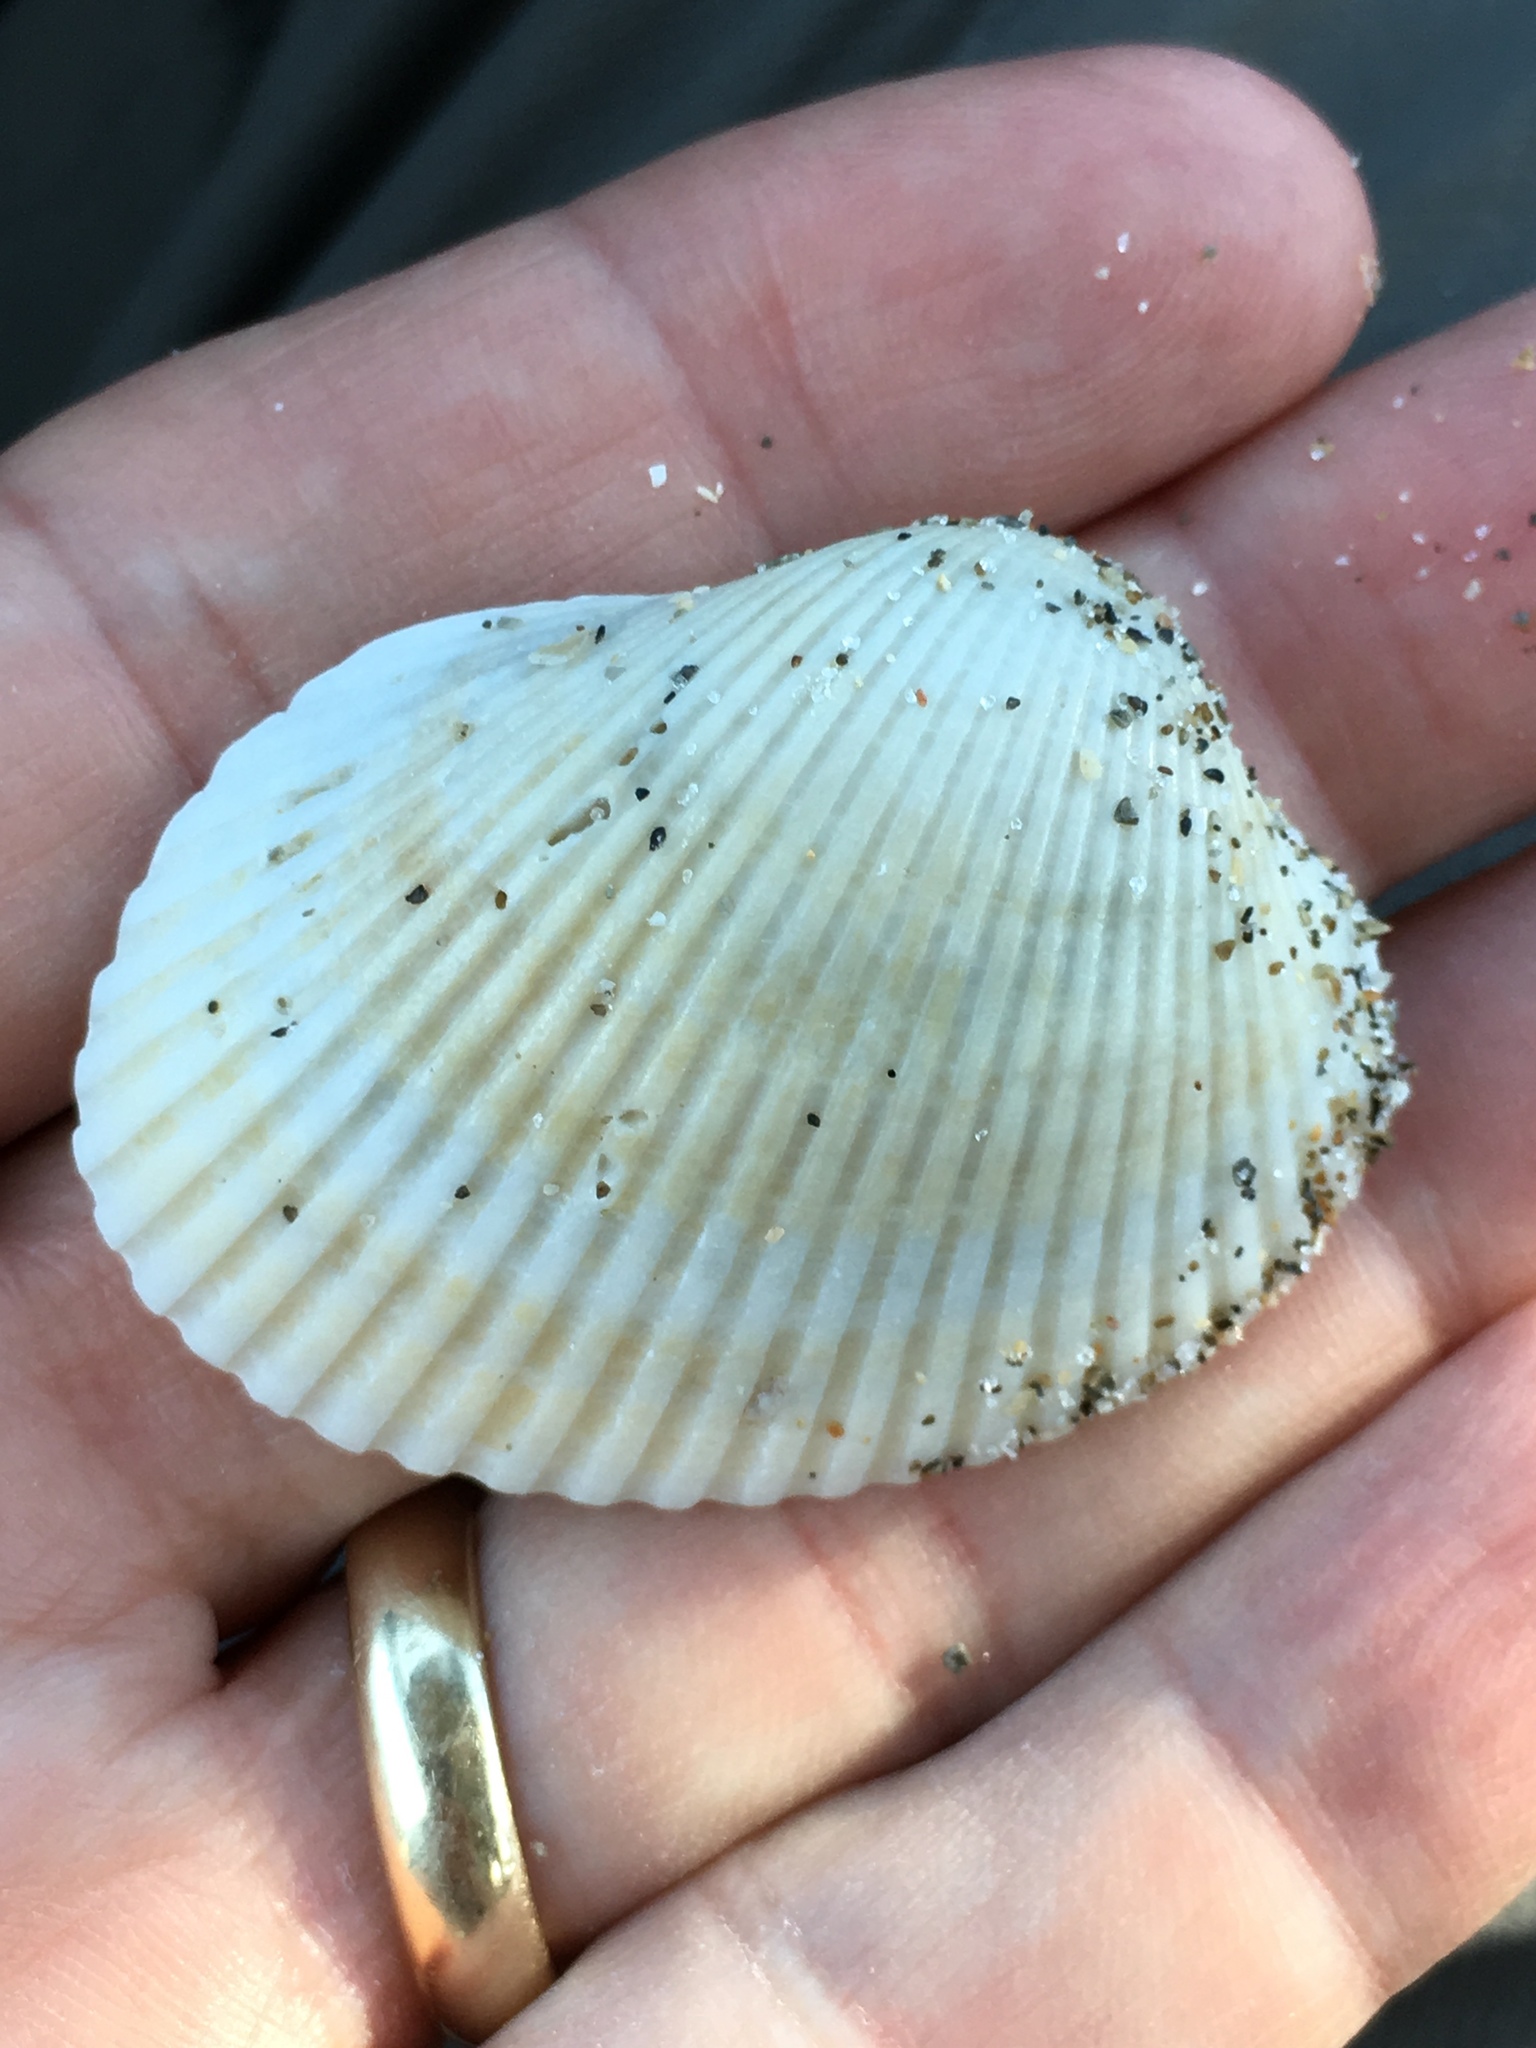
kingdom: Animalia
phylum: Mollusca
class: Bivalvia
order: Arcida
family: Arcidae
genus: Lunarca
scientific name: Lunarca ovalis
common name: Blood ark
